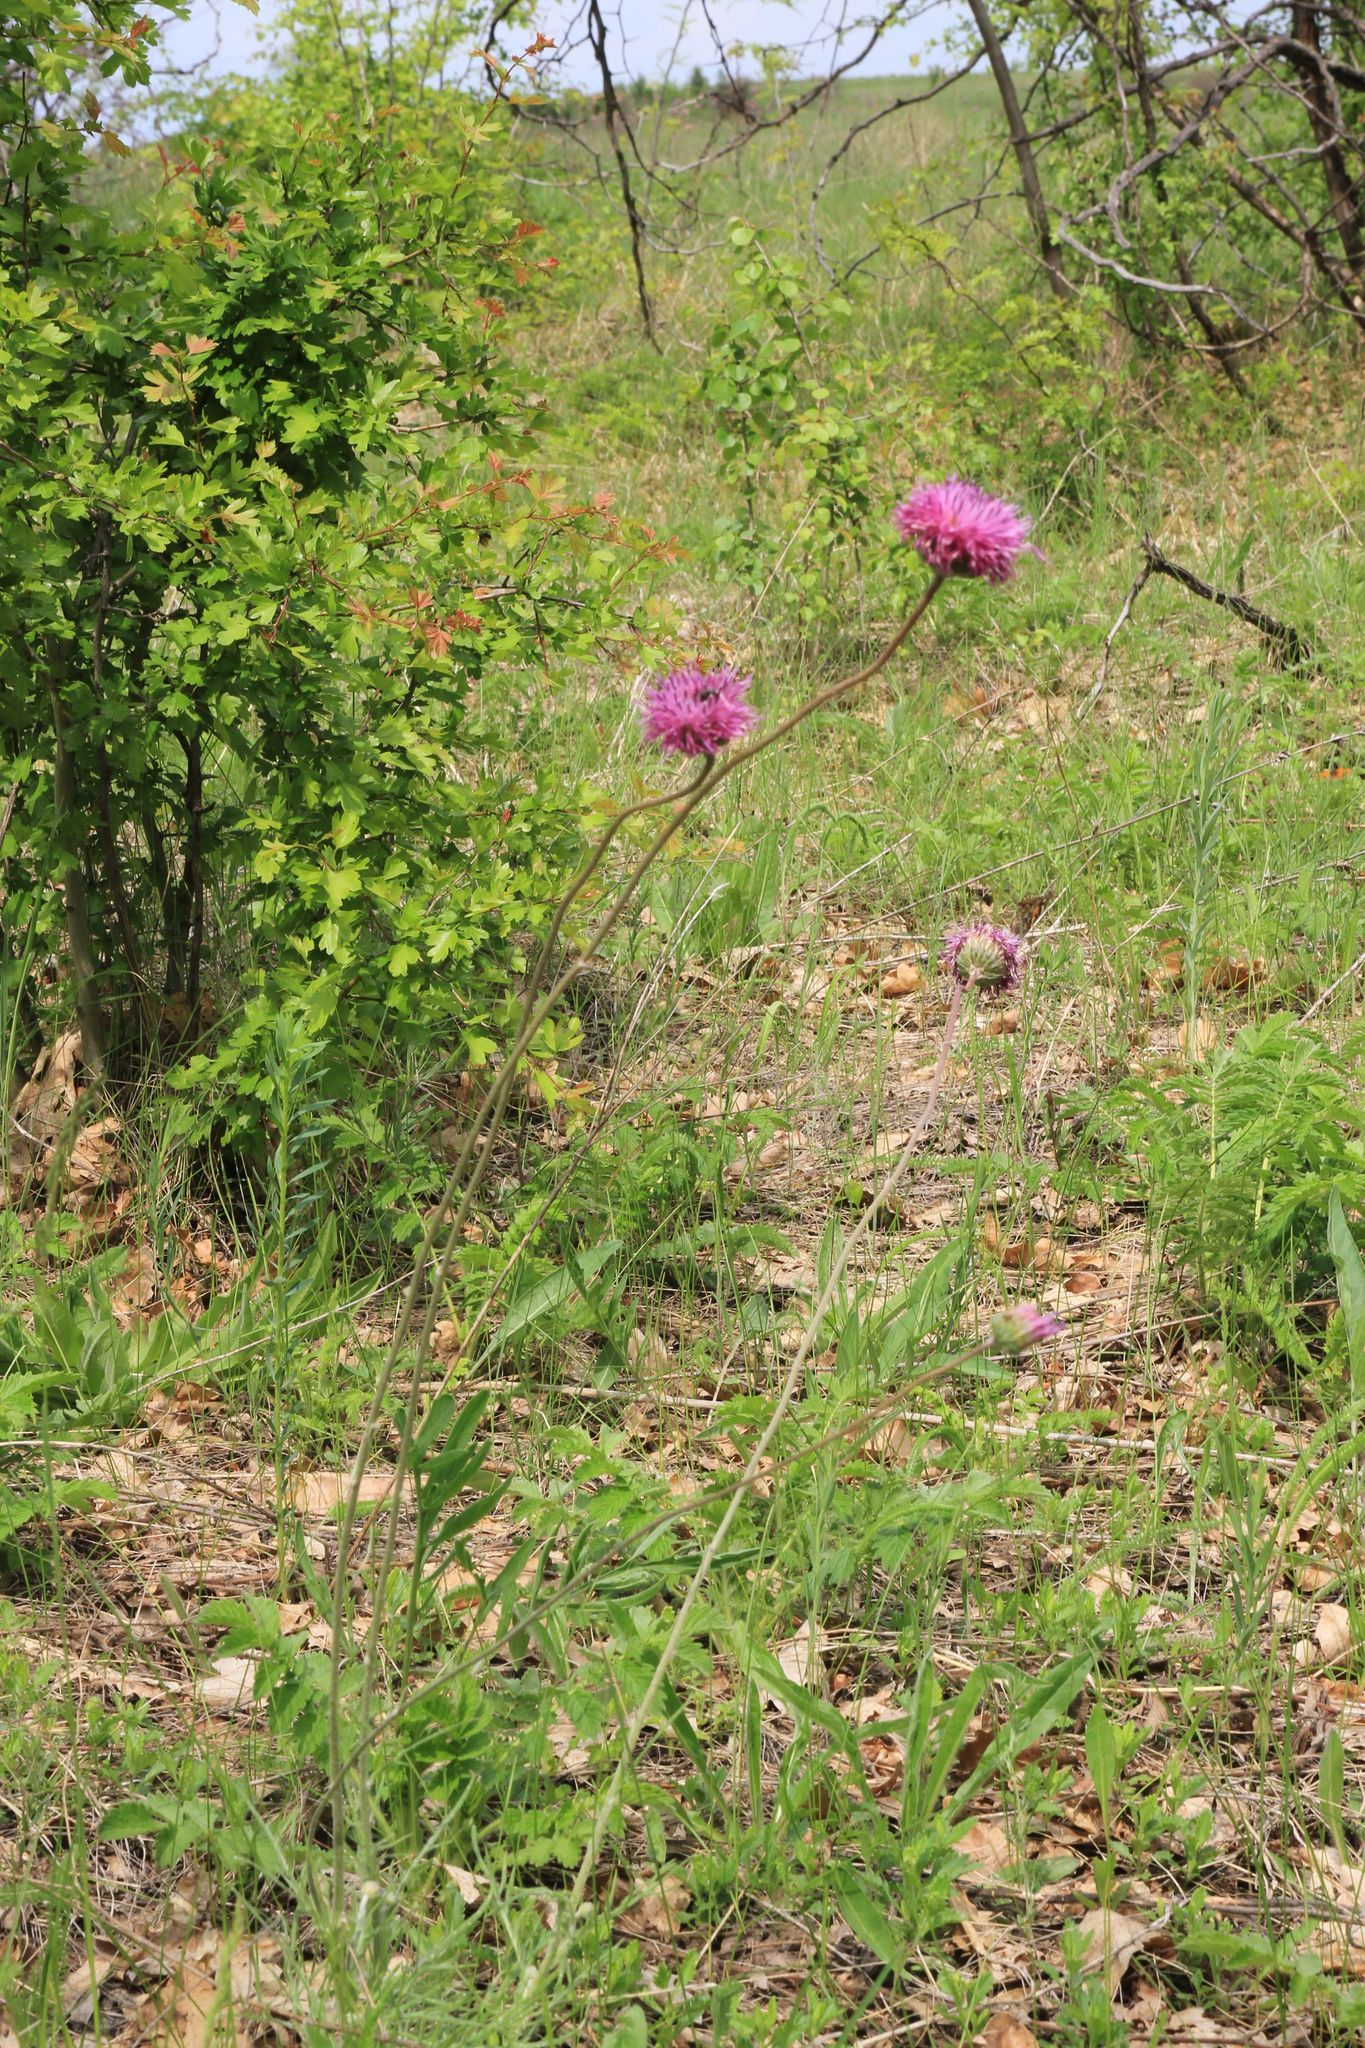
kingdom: Plantae
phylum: Tracheophyta
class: Magnoliopsida
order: Asterales
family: Asteraceae
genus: Jurinea
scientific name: Jurinea arachnoidea
